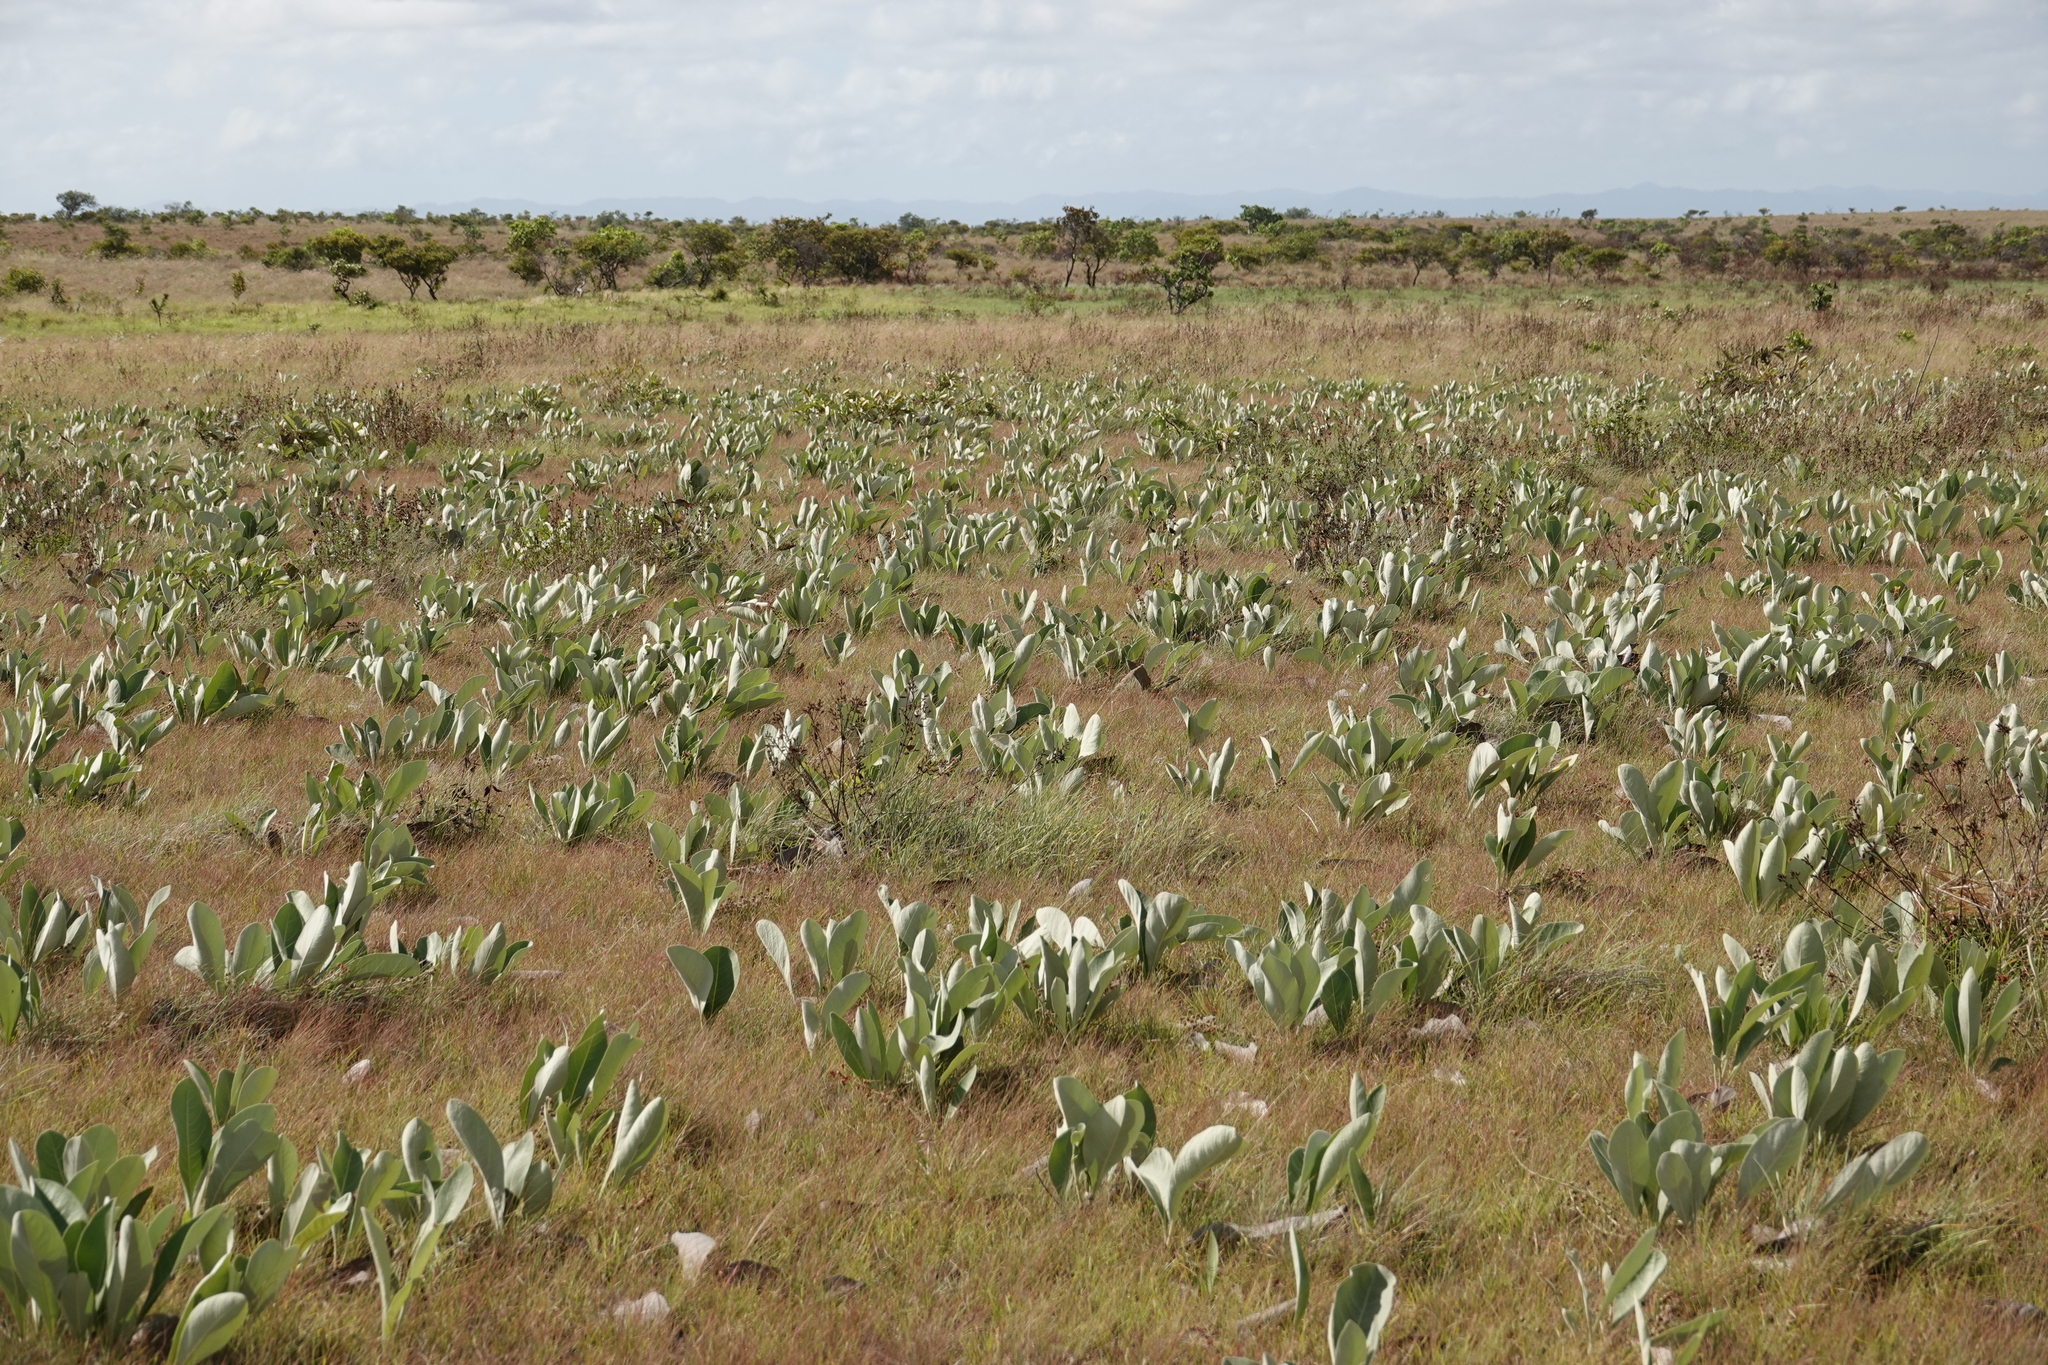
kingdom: Plantae
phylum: Tracheophyta
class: Magnoliopsida
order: Malpighiales
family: Malpighiaceae
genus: Byrsonima
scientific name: Byrsonima verbascifolia
